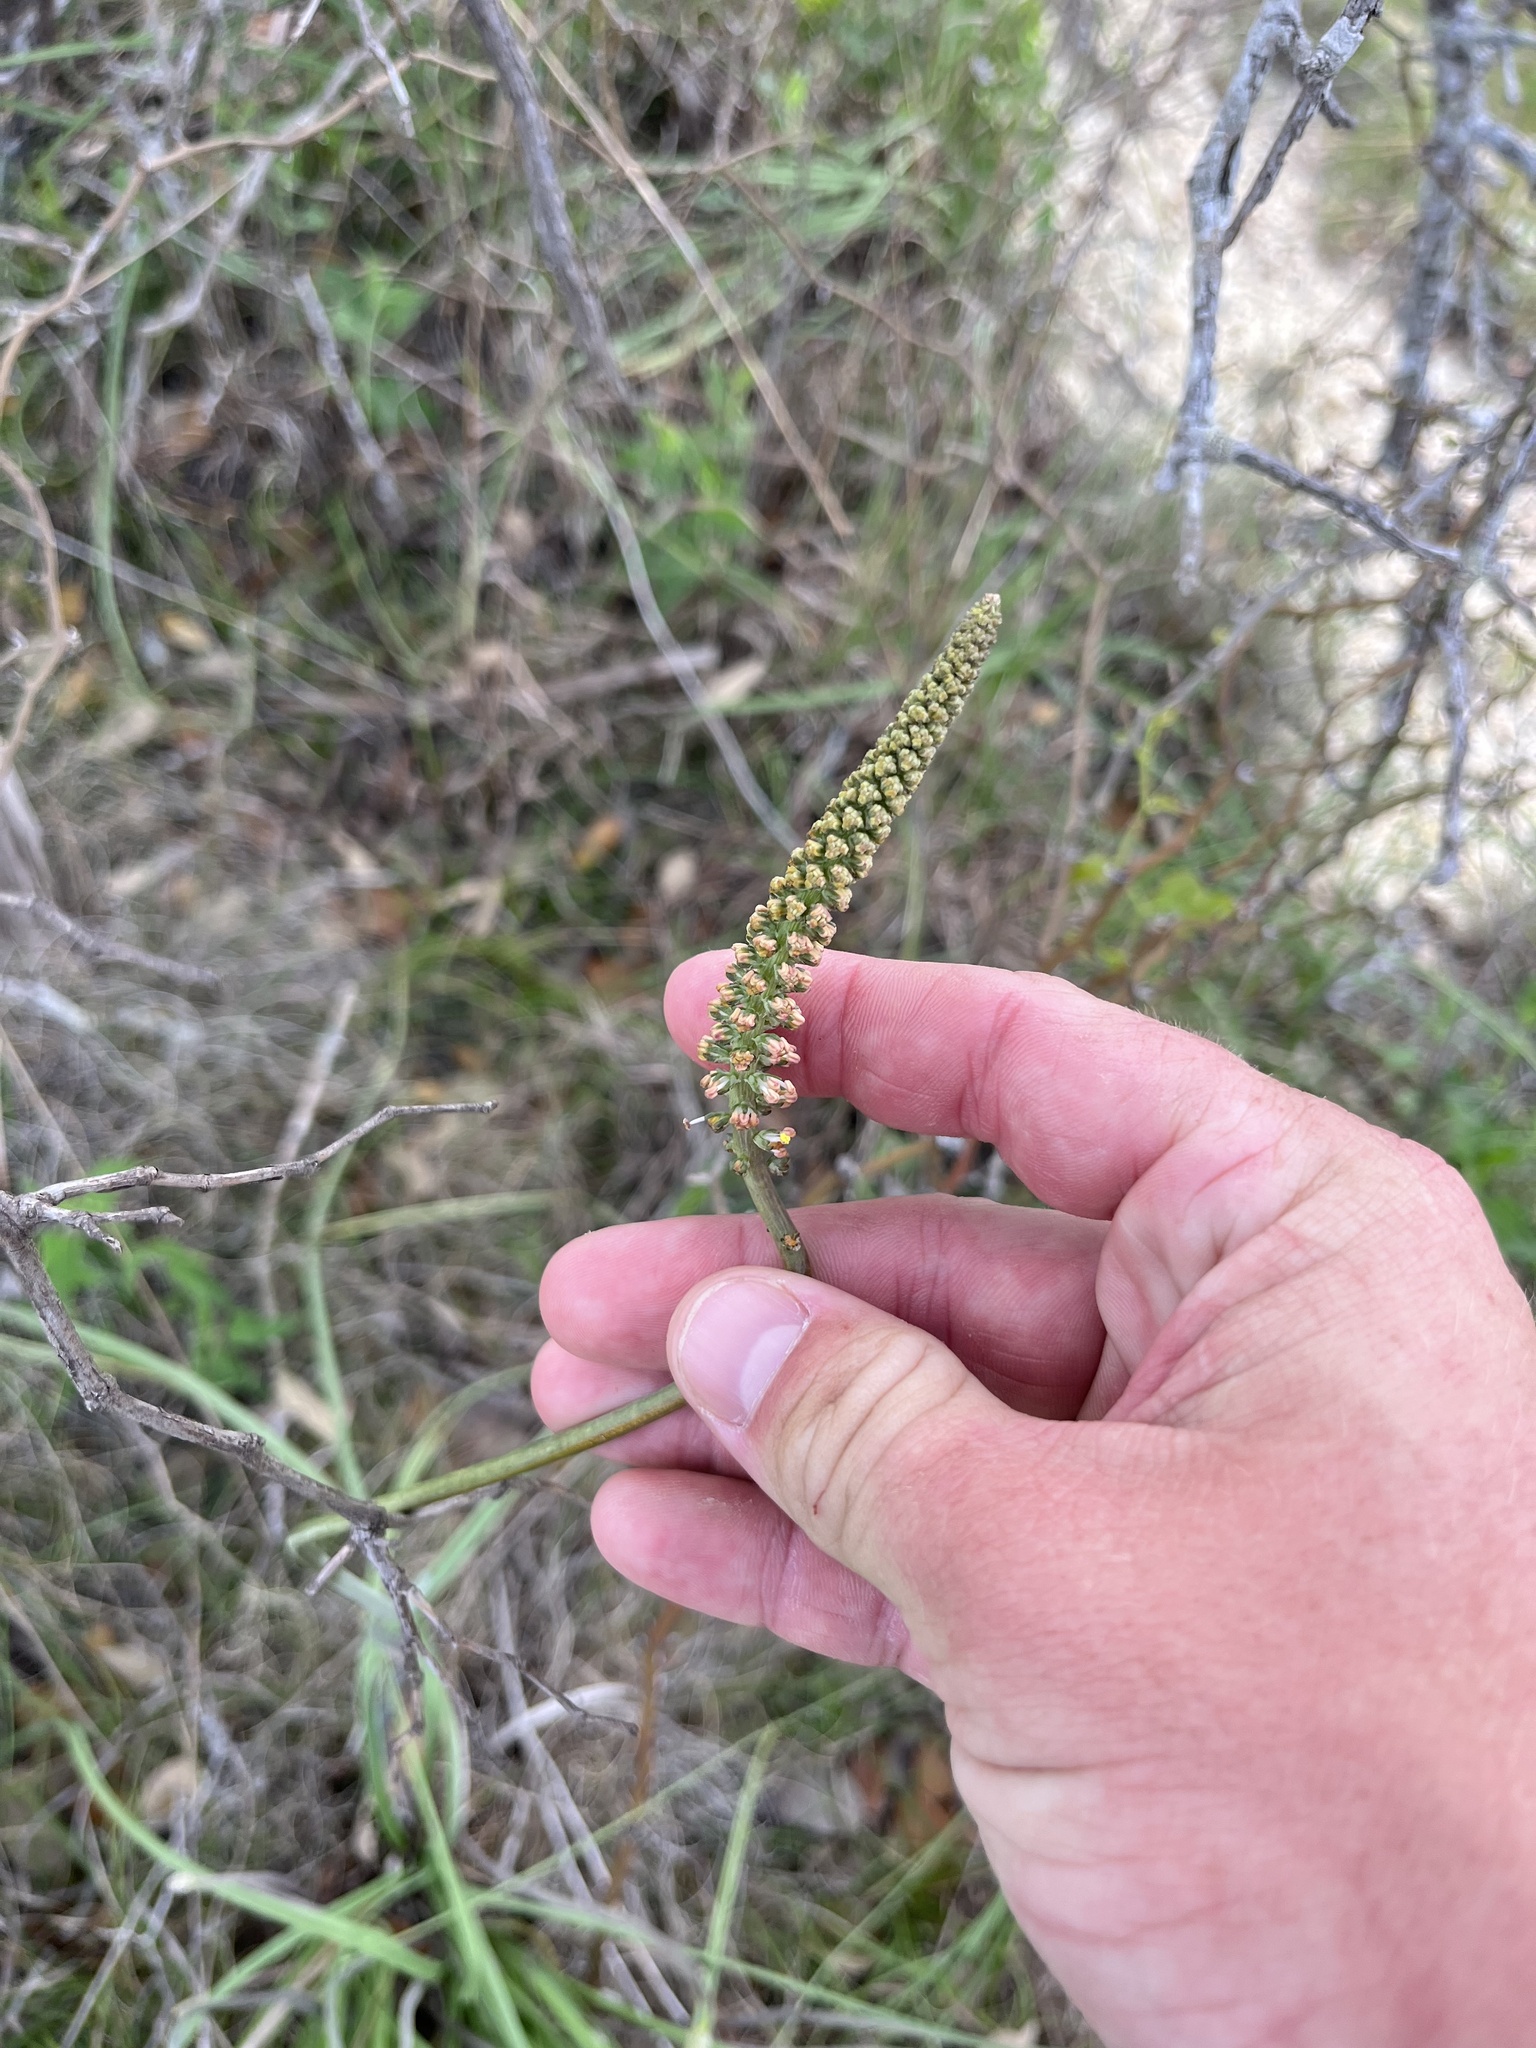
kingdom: Plantae
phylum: Tracheophyta
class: Liliopsida
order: Liliales
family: Melanthiaceae
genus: Schoenocaulon
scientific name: Schoenocaulon texanum
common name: Texas feather-shank
